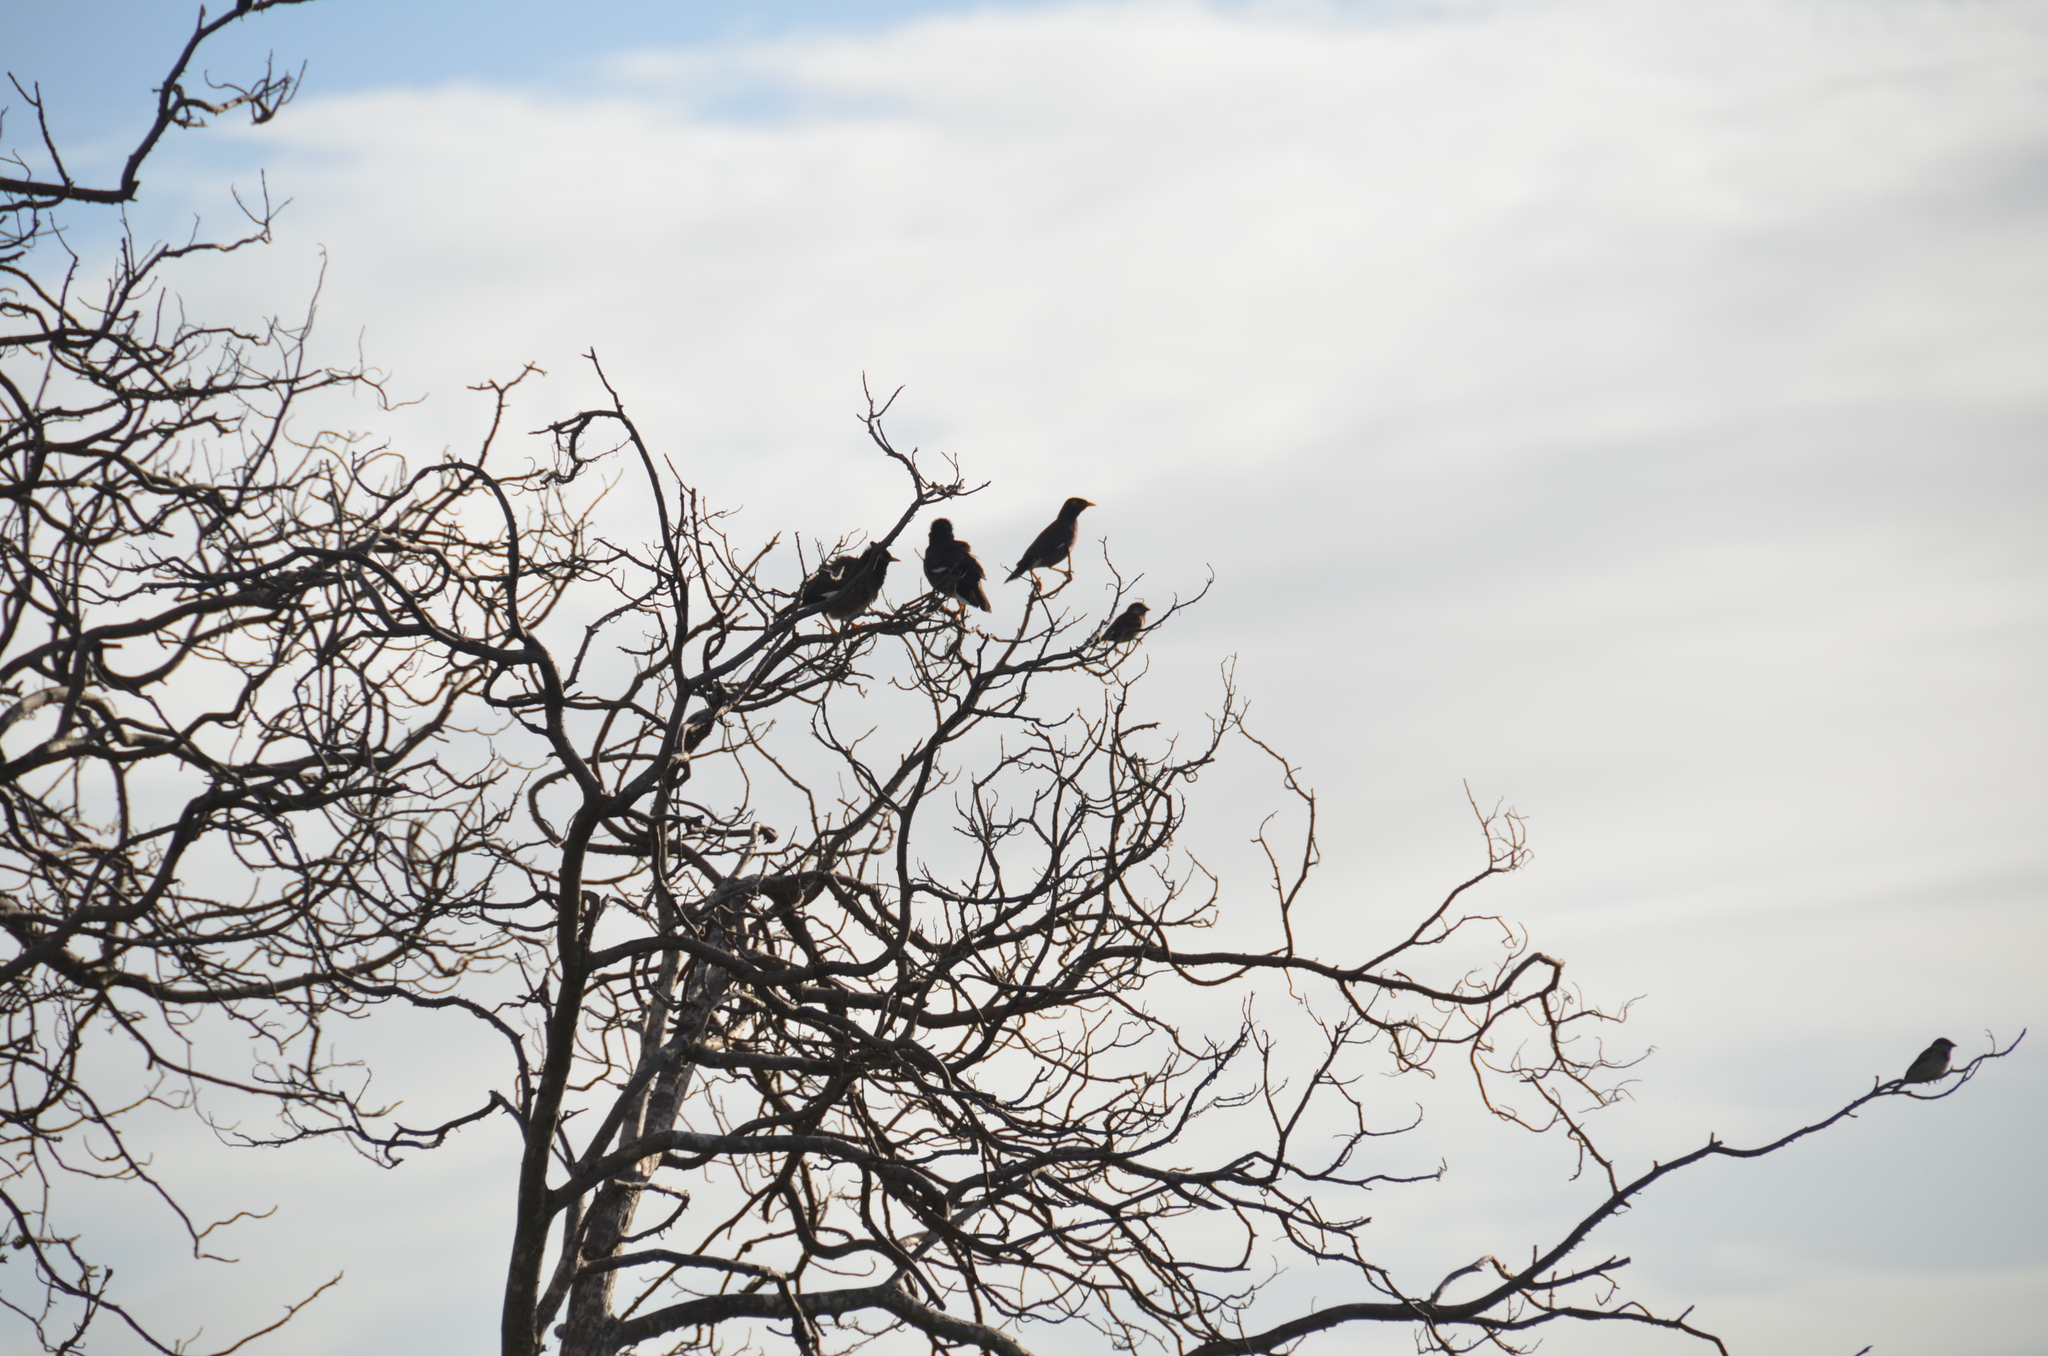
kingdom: Animalia
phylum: Chordata
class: Aves
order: Passeriformes
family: Sturnidae
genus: Acridotheres
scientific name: Acridotheres tristis
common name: Common myna
